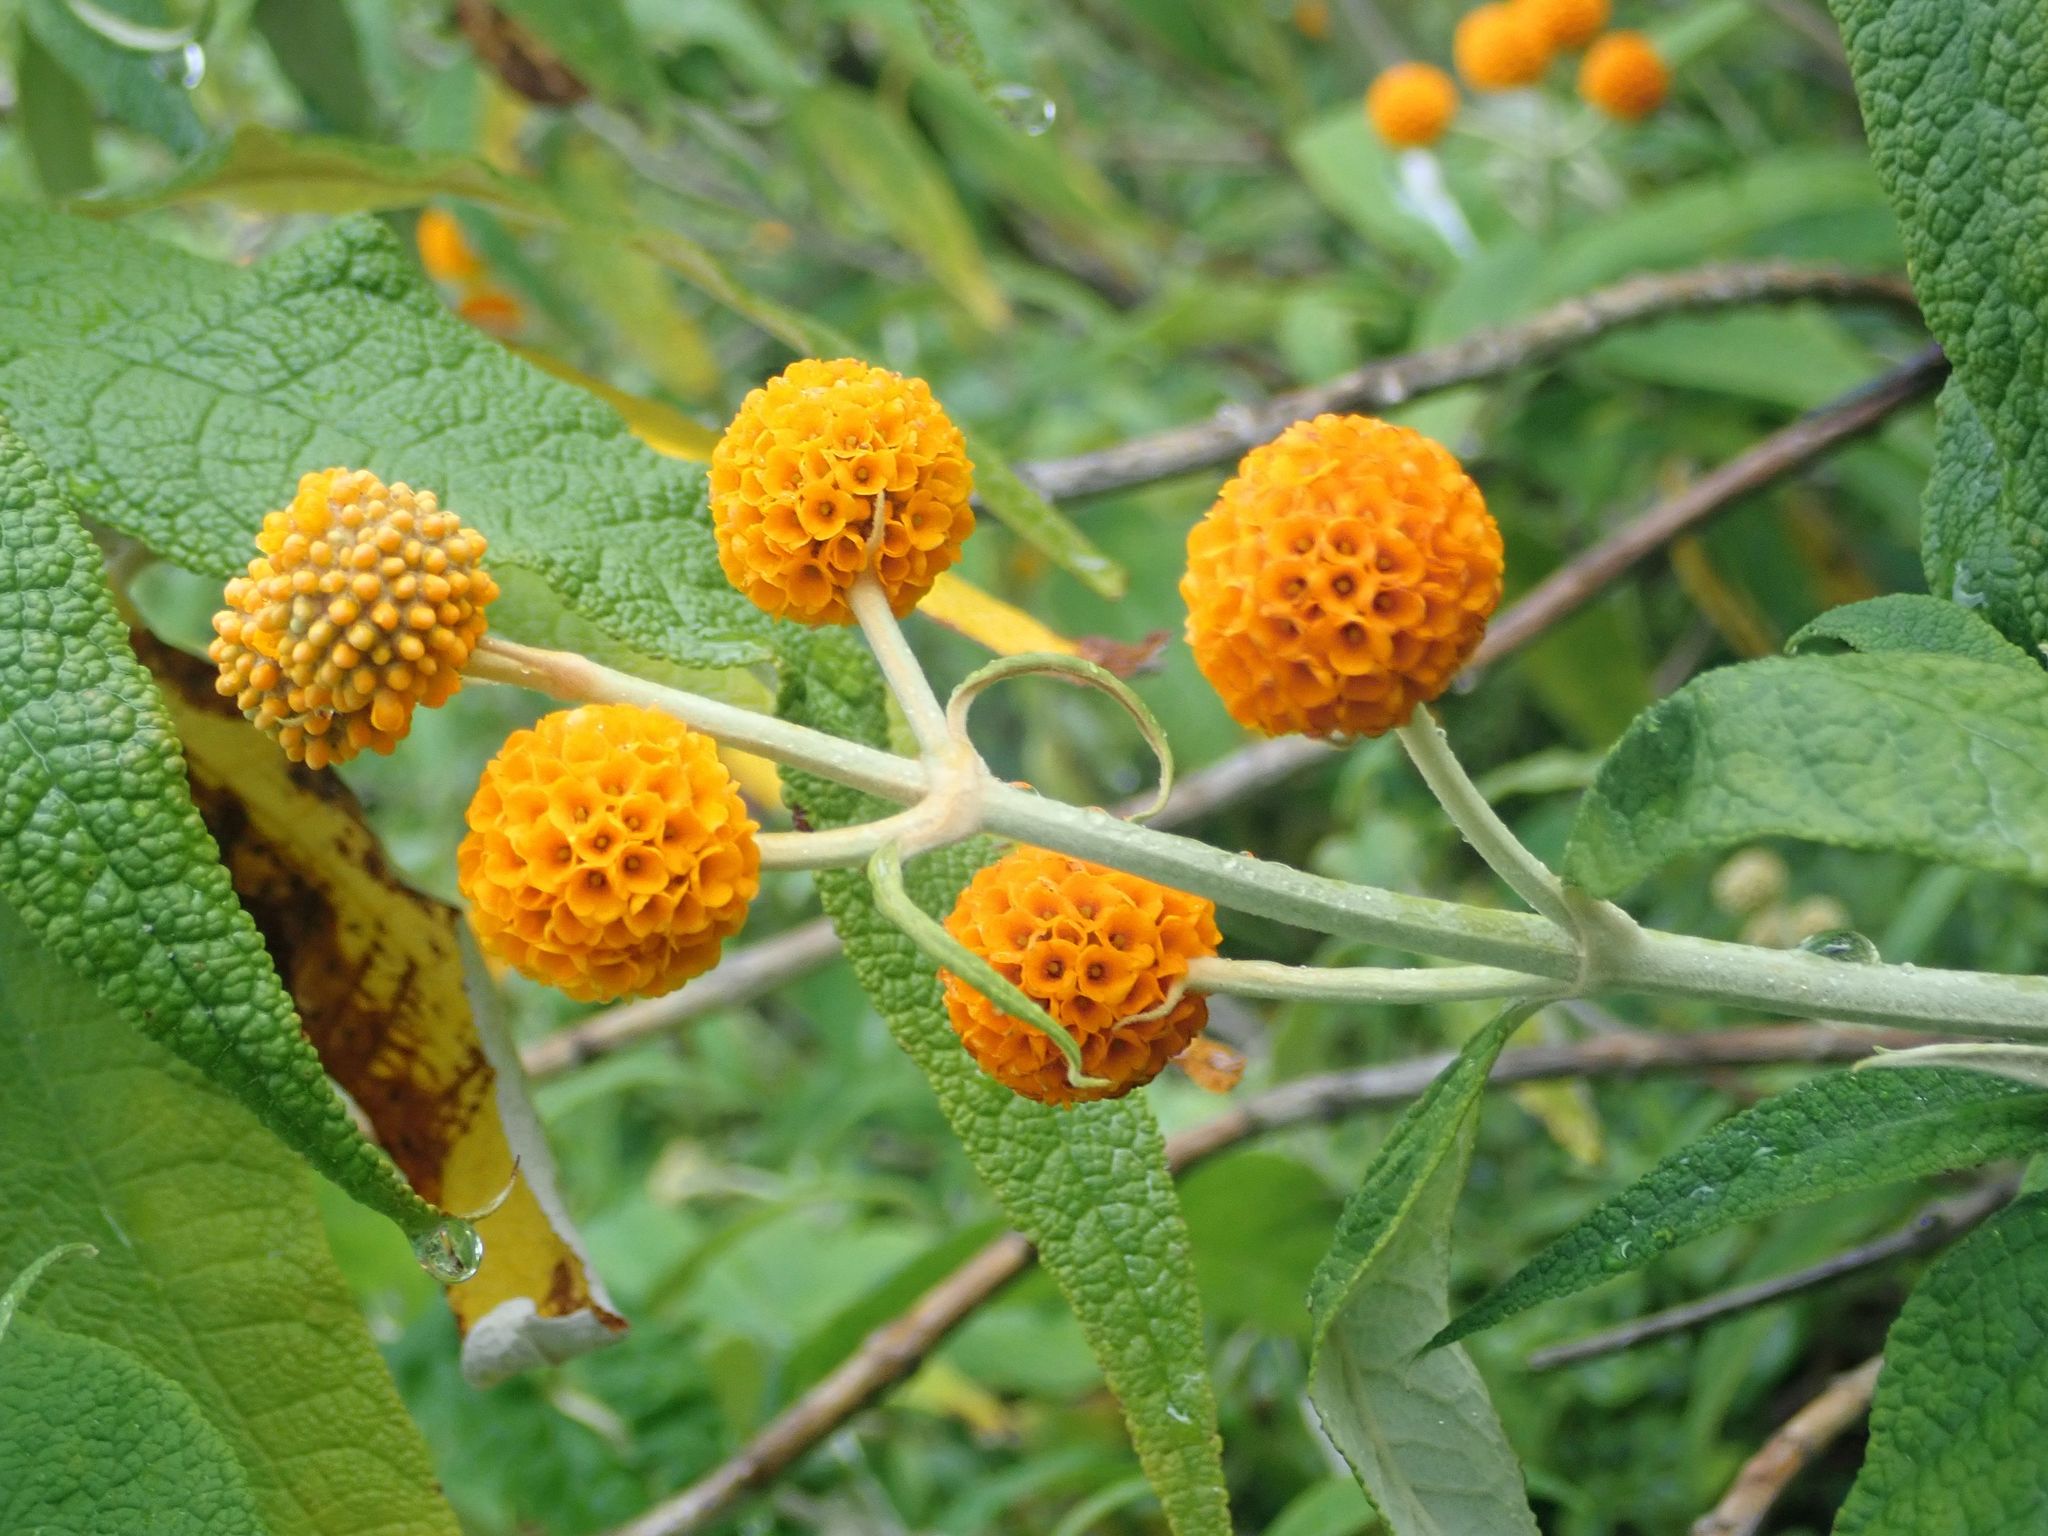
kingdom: Plantae
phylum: Tracheophyta
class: Magnoliopsida
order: Lamiales
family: Scrophulariaceae
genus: Buddleja
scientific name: Buddleja globosa
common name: Orange-ball-tree
